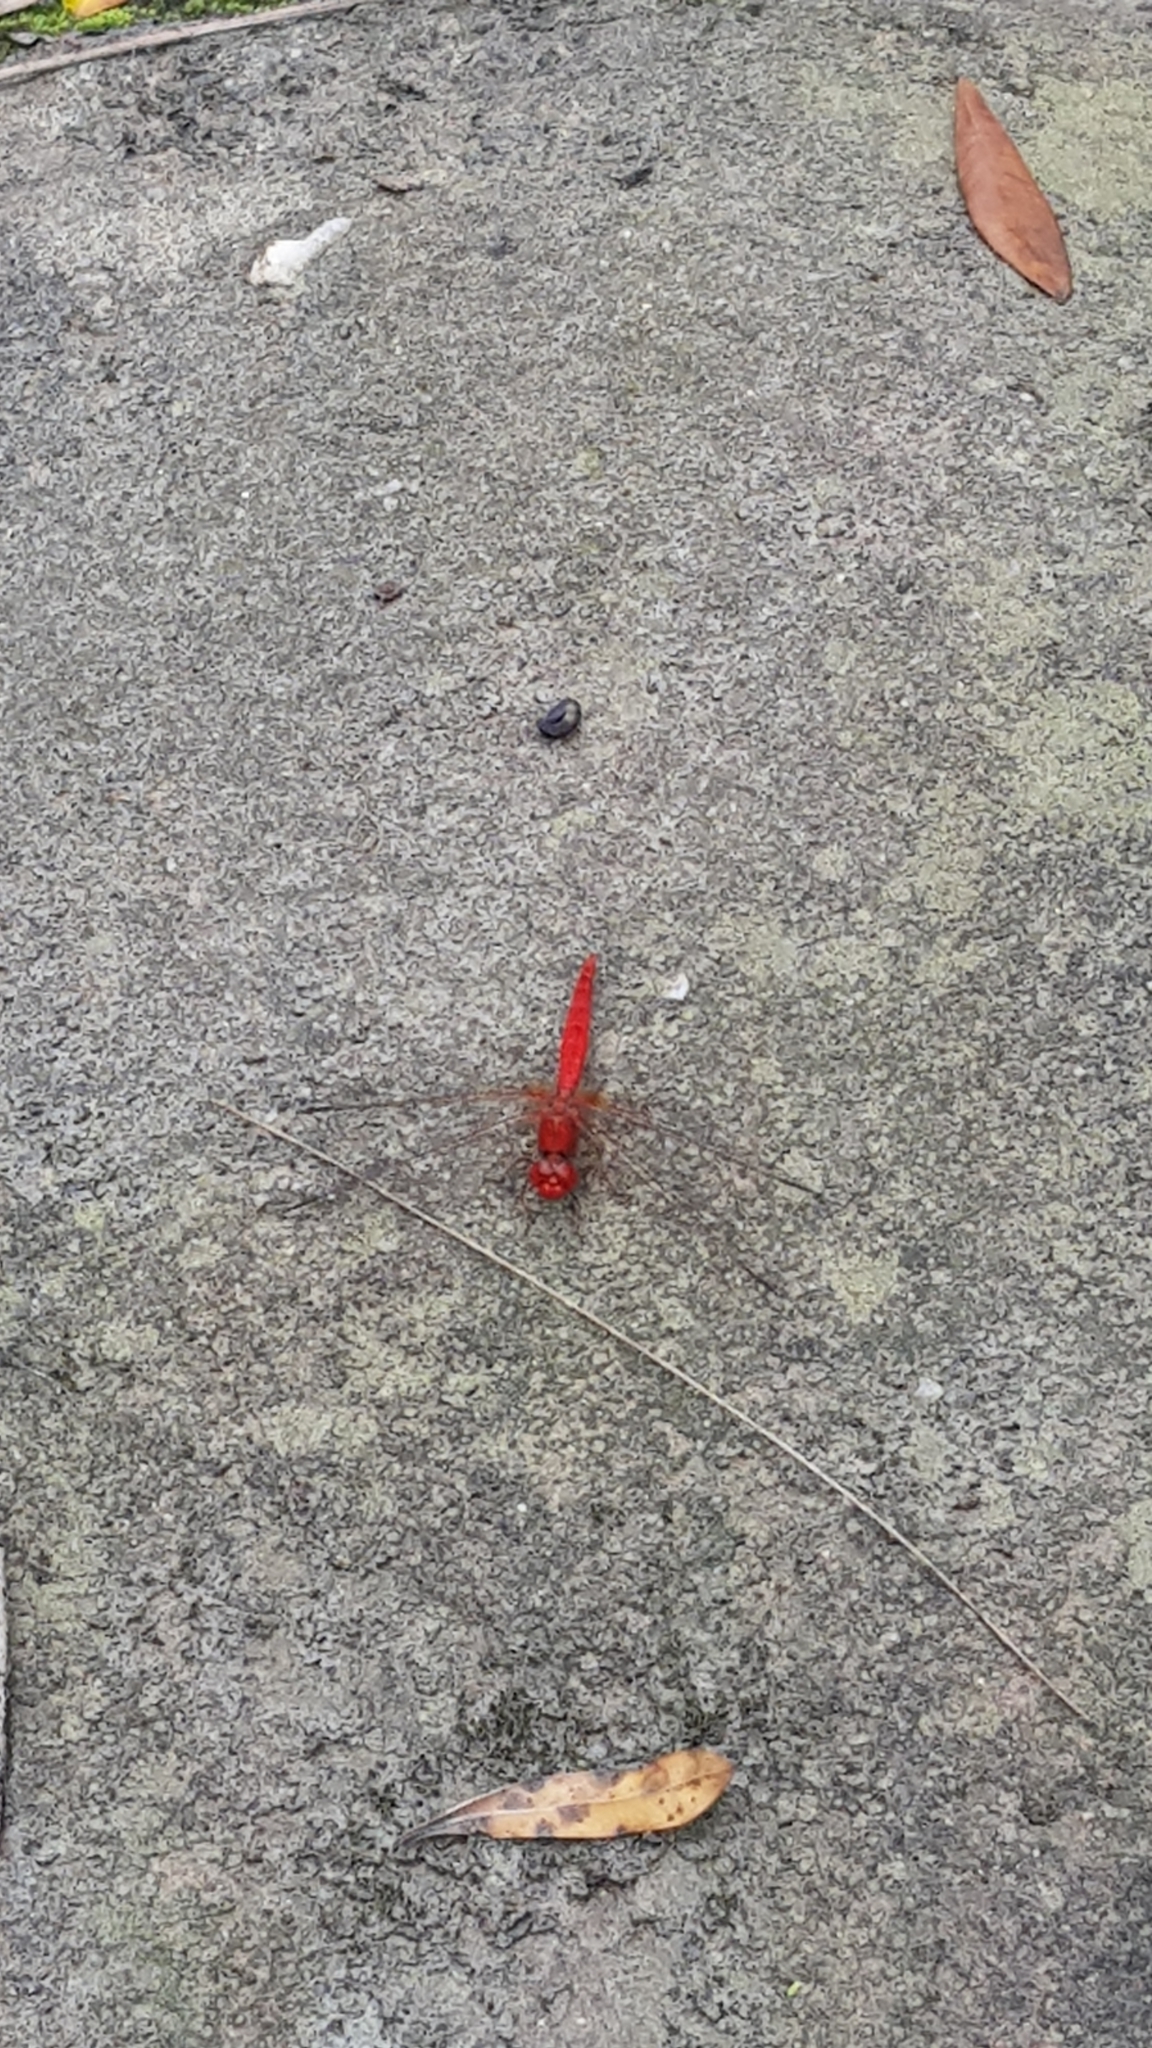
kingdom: Animalia
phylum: Arthropoda
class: Insecta
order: Odonata
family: Libellulidae
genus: Diplacodes
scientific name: Diplacodes haematodes
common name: Scarlet percher
